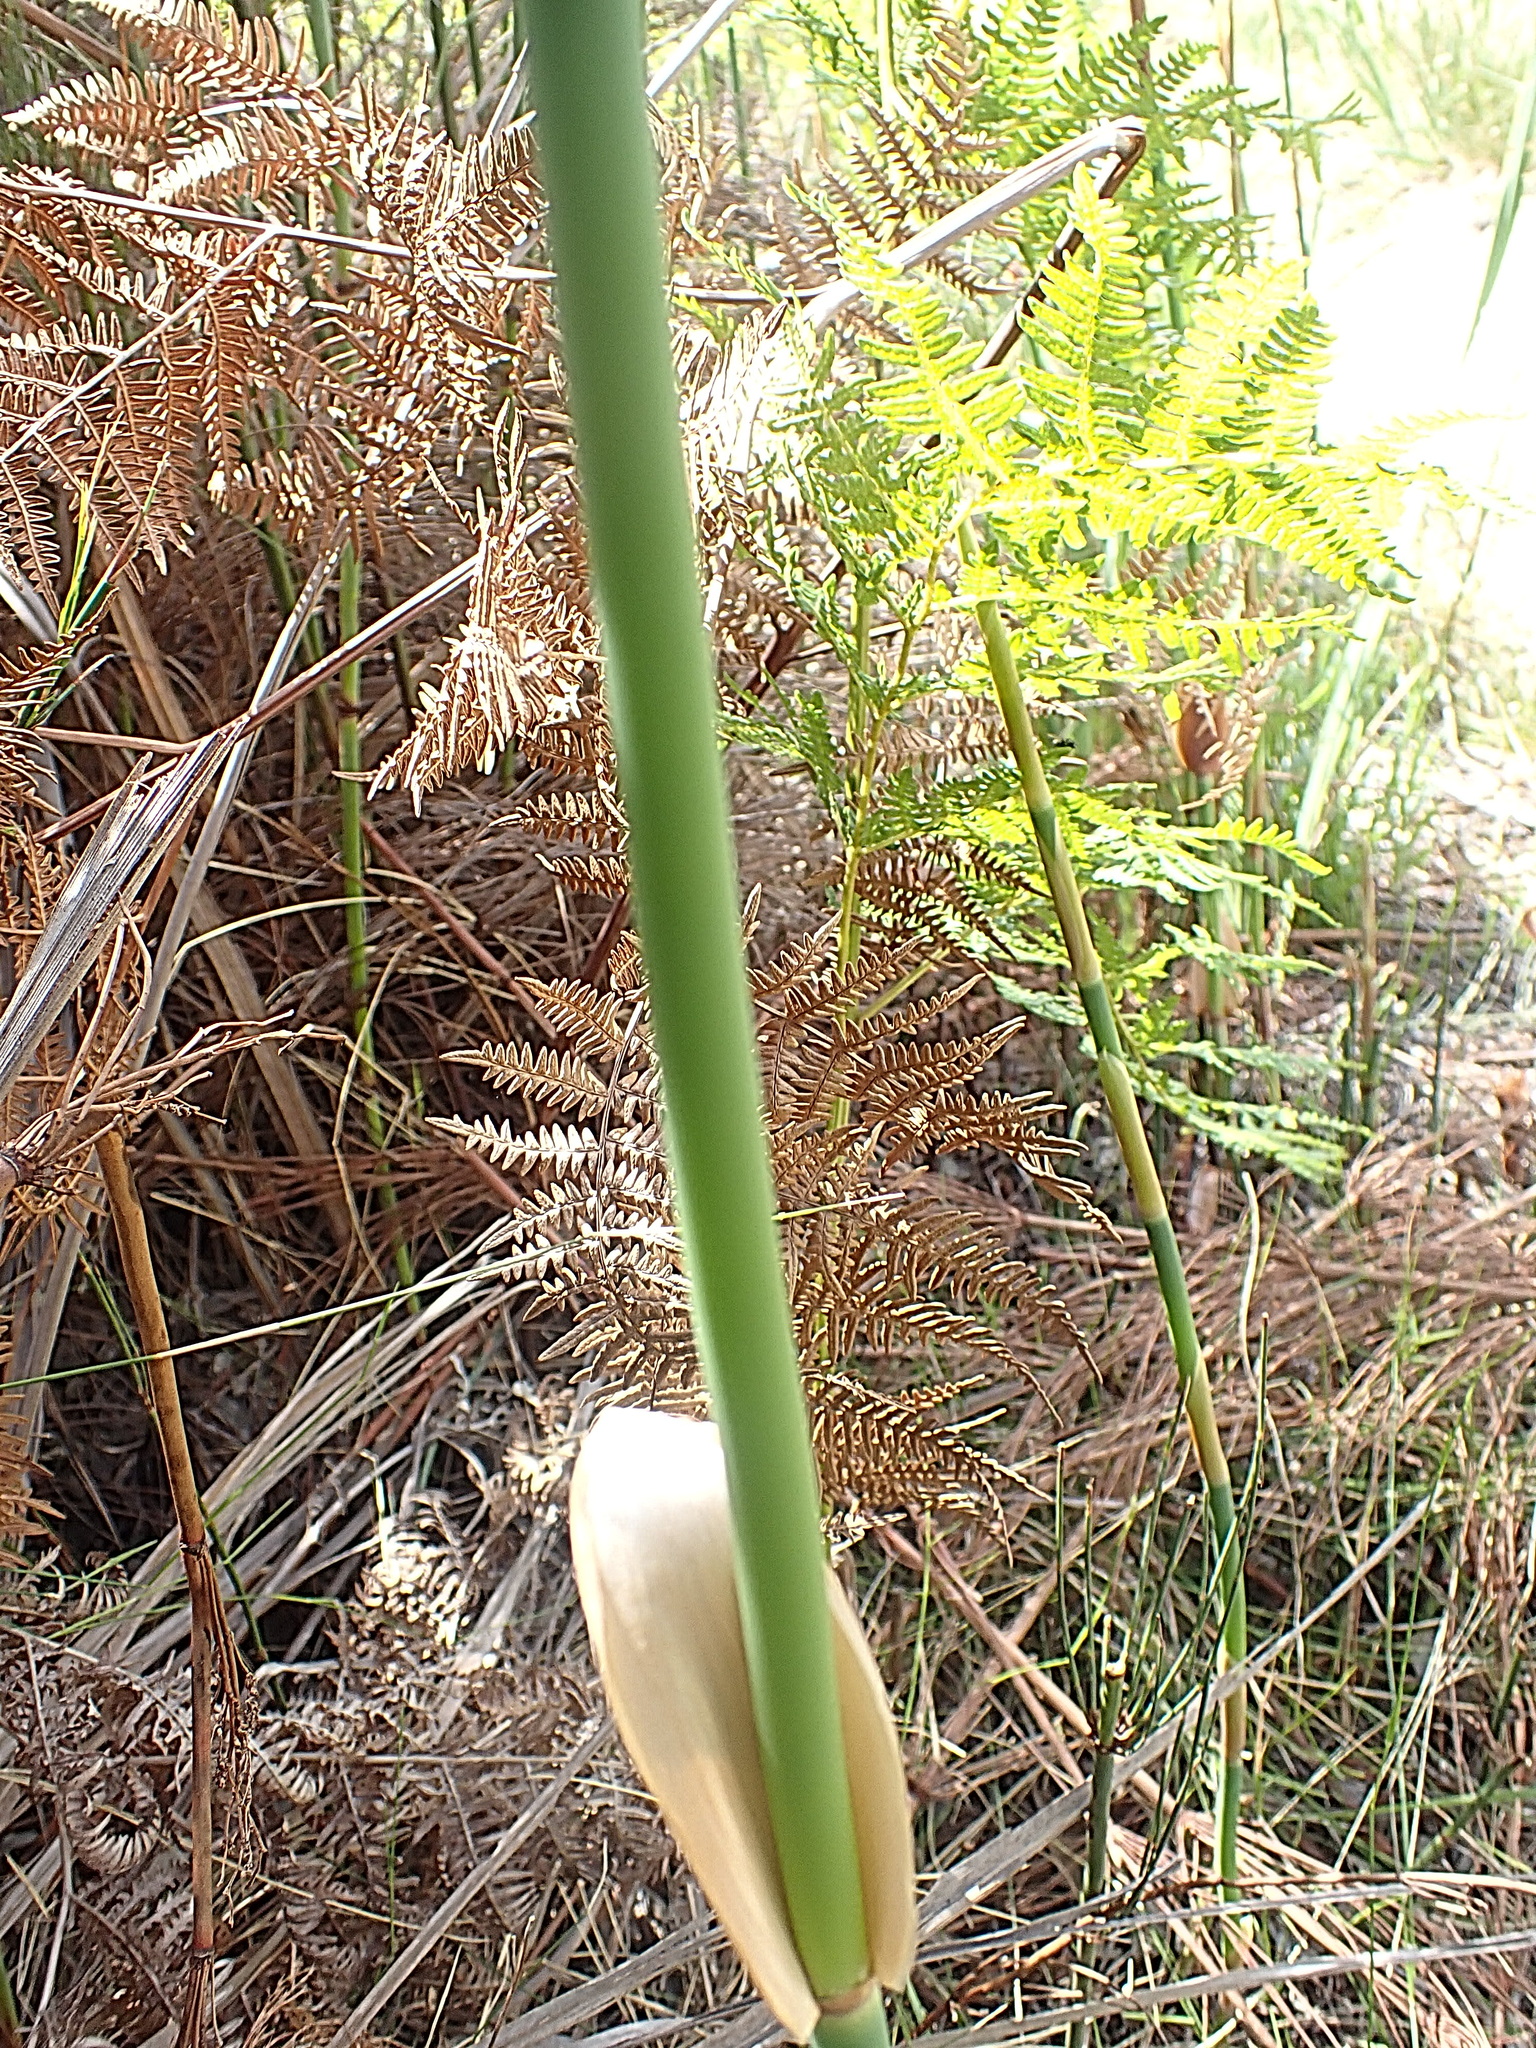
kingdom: Plantae
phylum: Tracheophyta
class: Liliopsida
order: Poales
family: Restionaceae
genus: Elegia
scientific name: Elegia capensis
